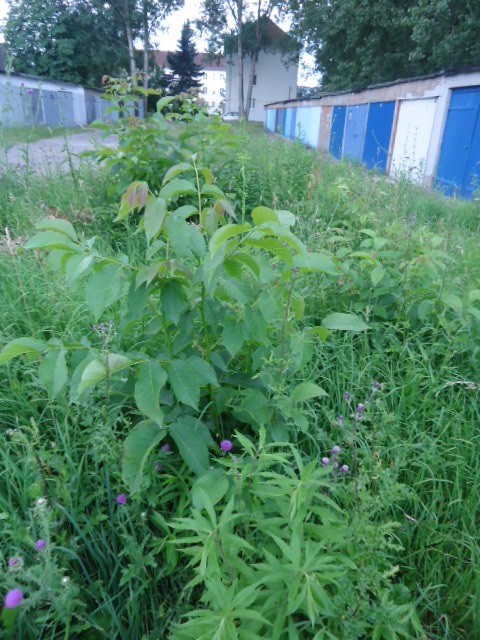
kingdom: Plantae
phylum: Tracheophyta
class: Magnoliopsida
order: Fagales
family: Juglandaceae
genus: Juglans
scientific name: Juglans regia
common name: Walnut
